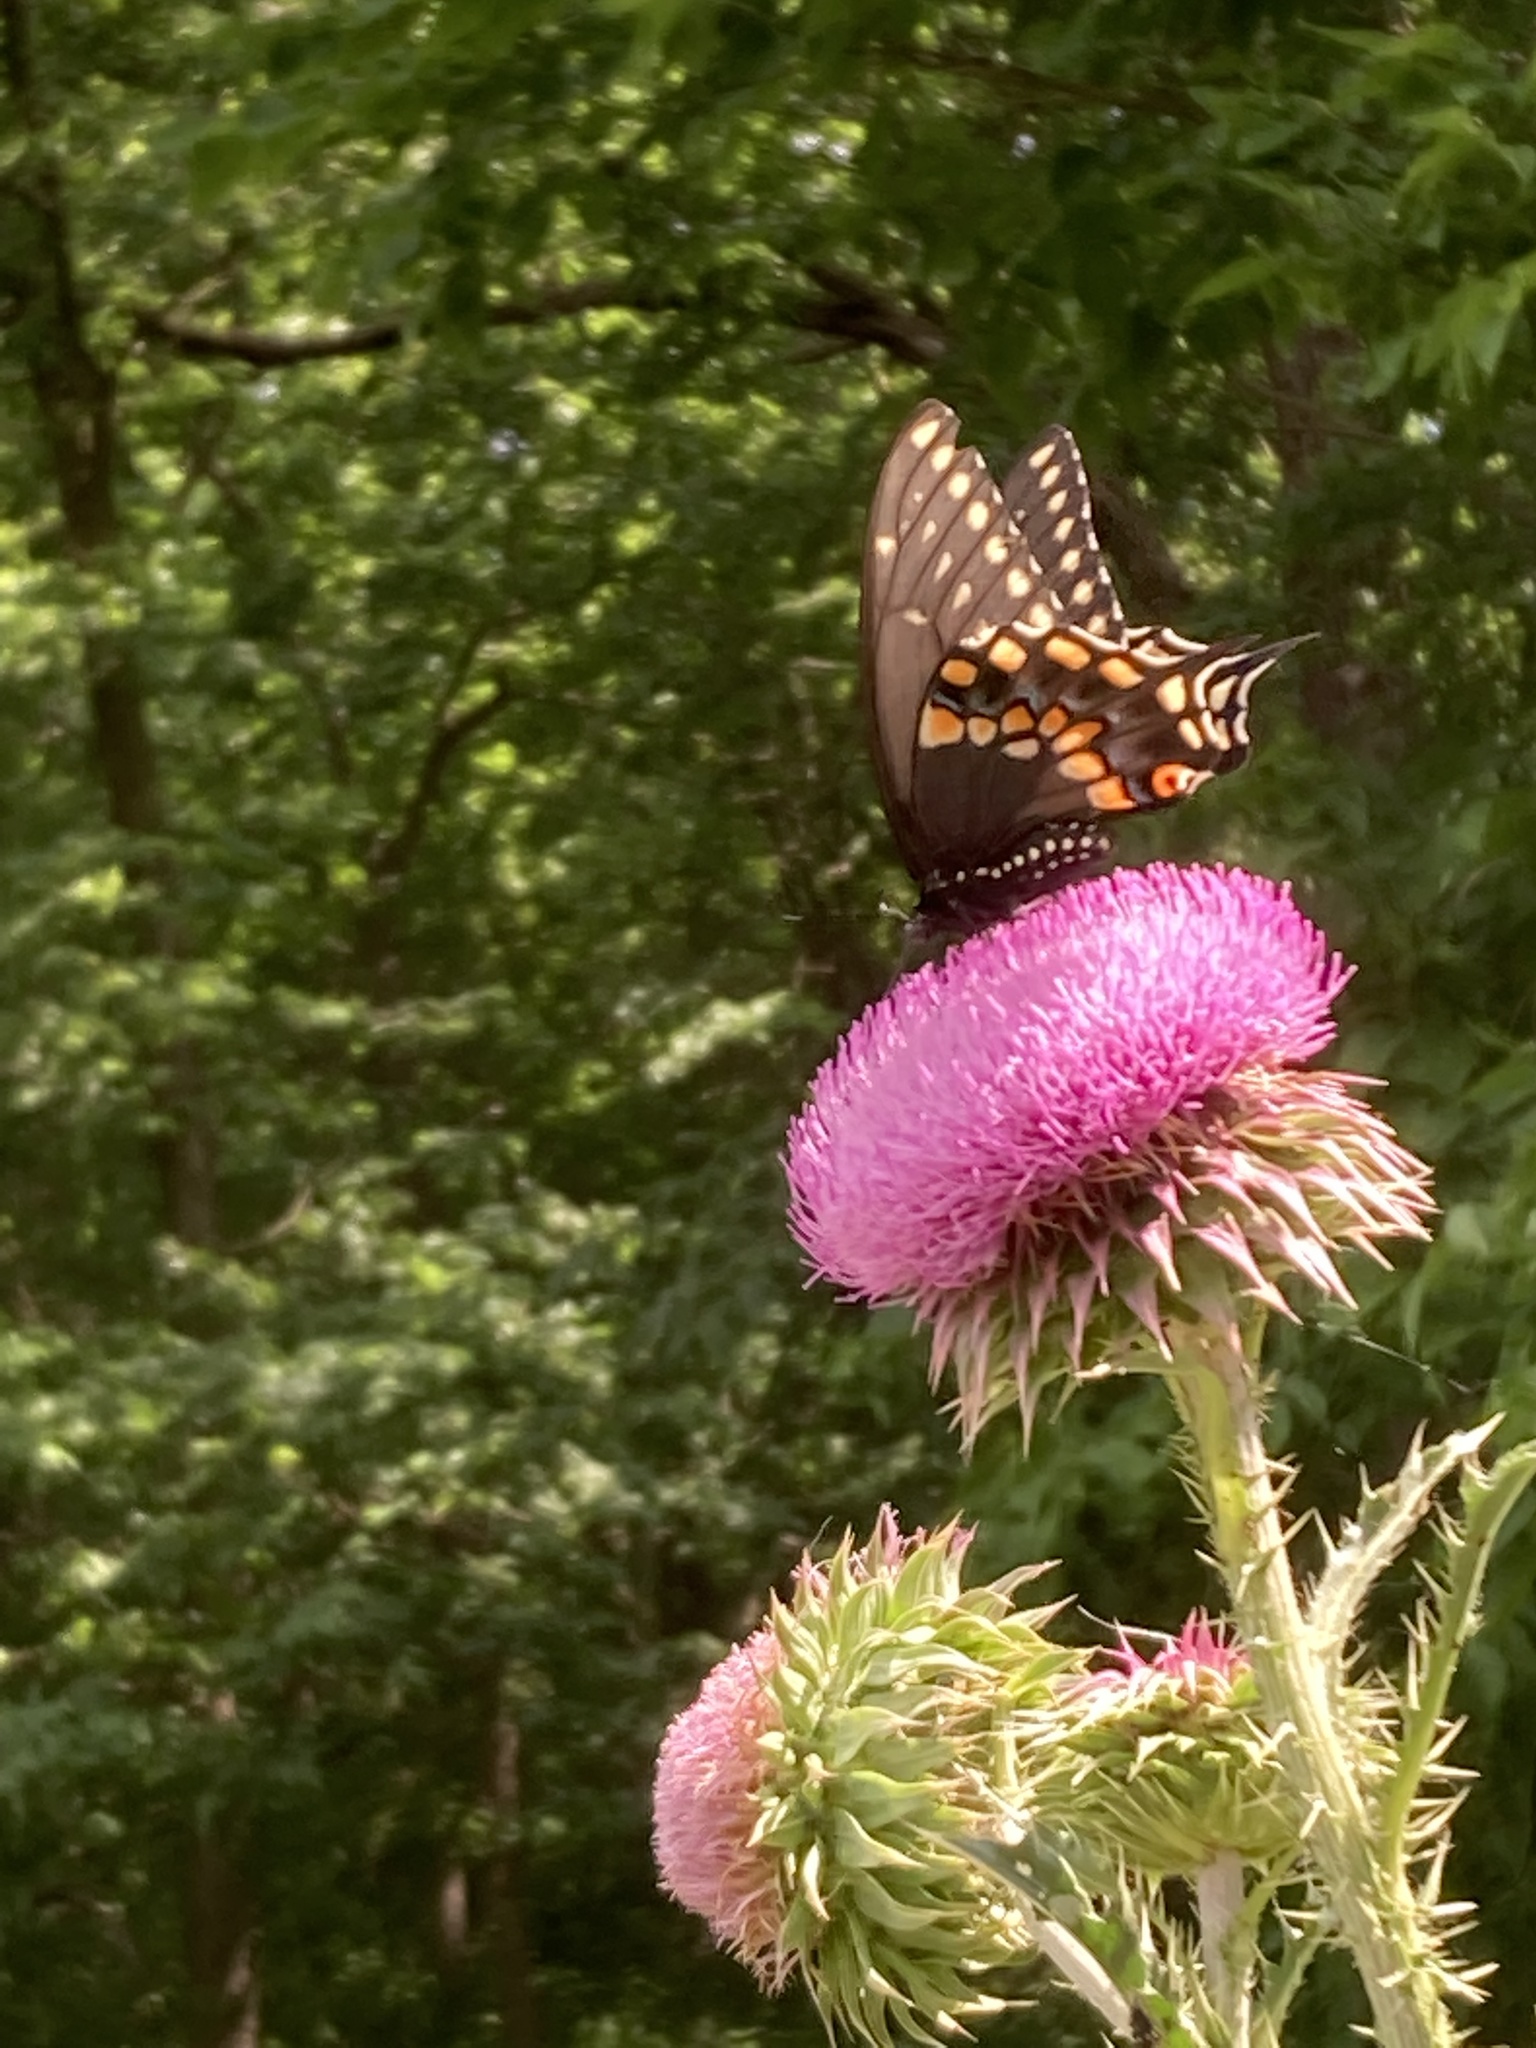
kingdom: Animalia
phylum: Arthropoda
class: Insecta
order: Lepidoptera
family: Papilionidae
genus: Papilio
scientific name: Papilio polyxenes
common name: Black swallowtail
